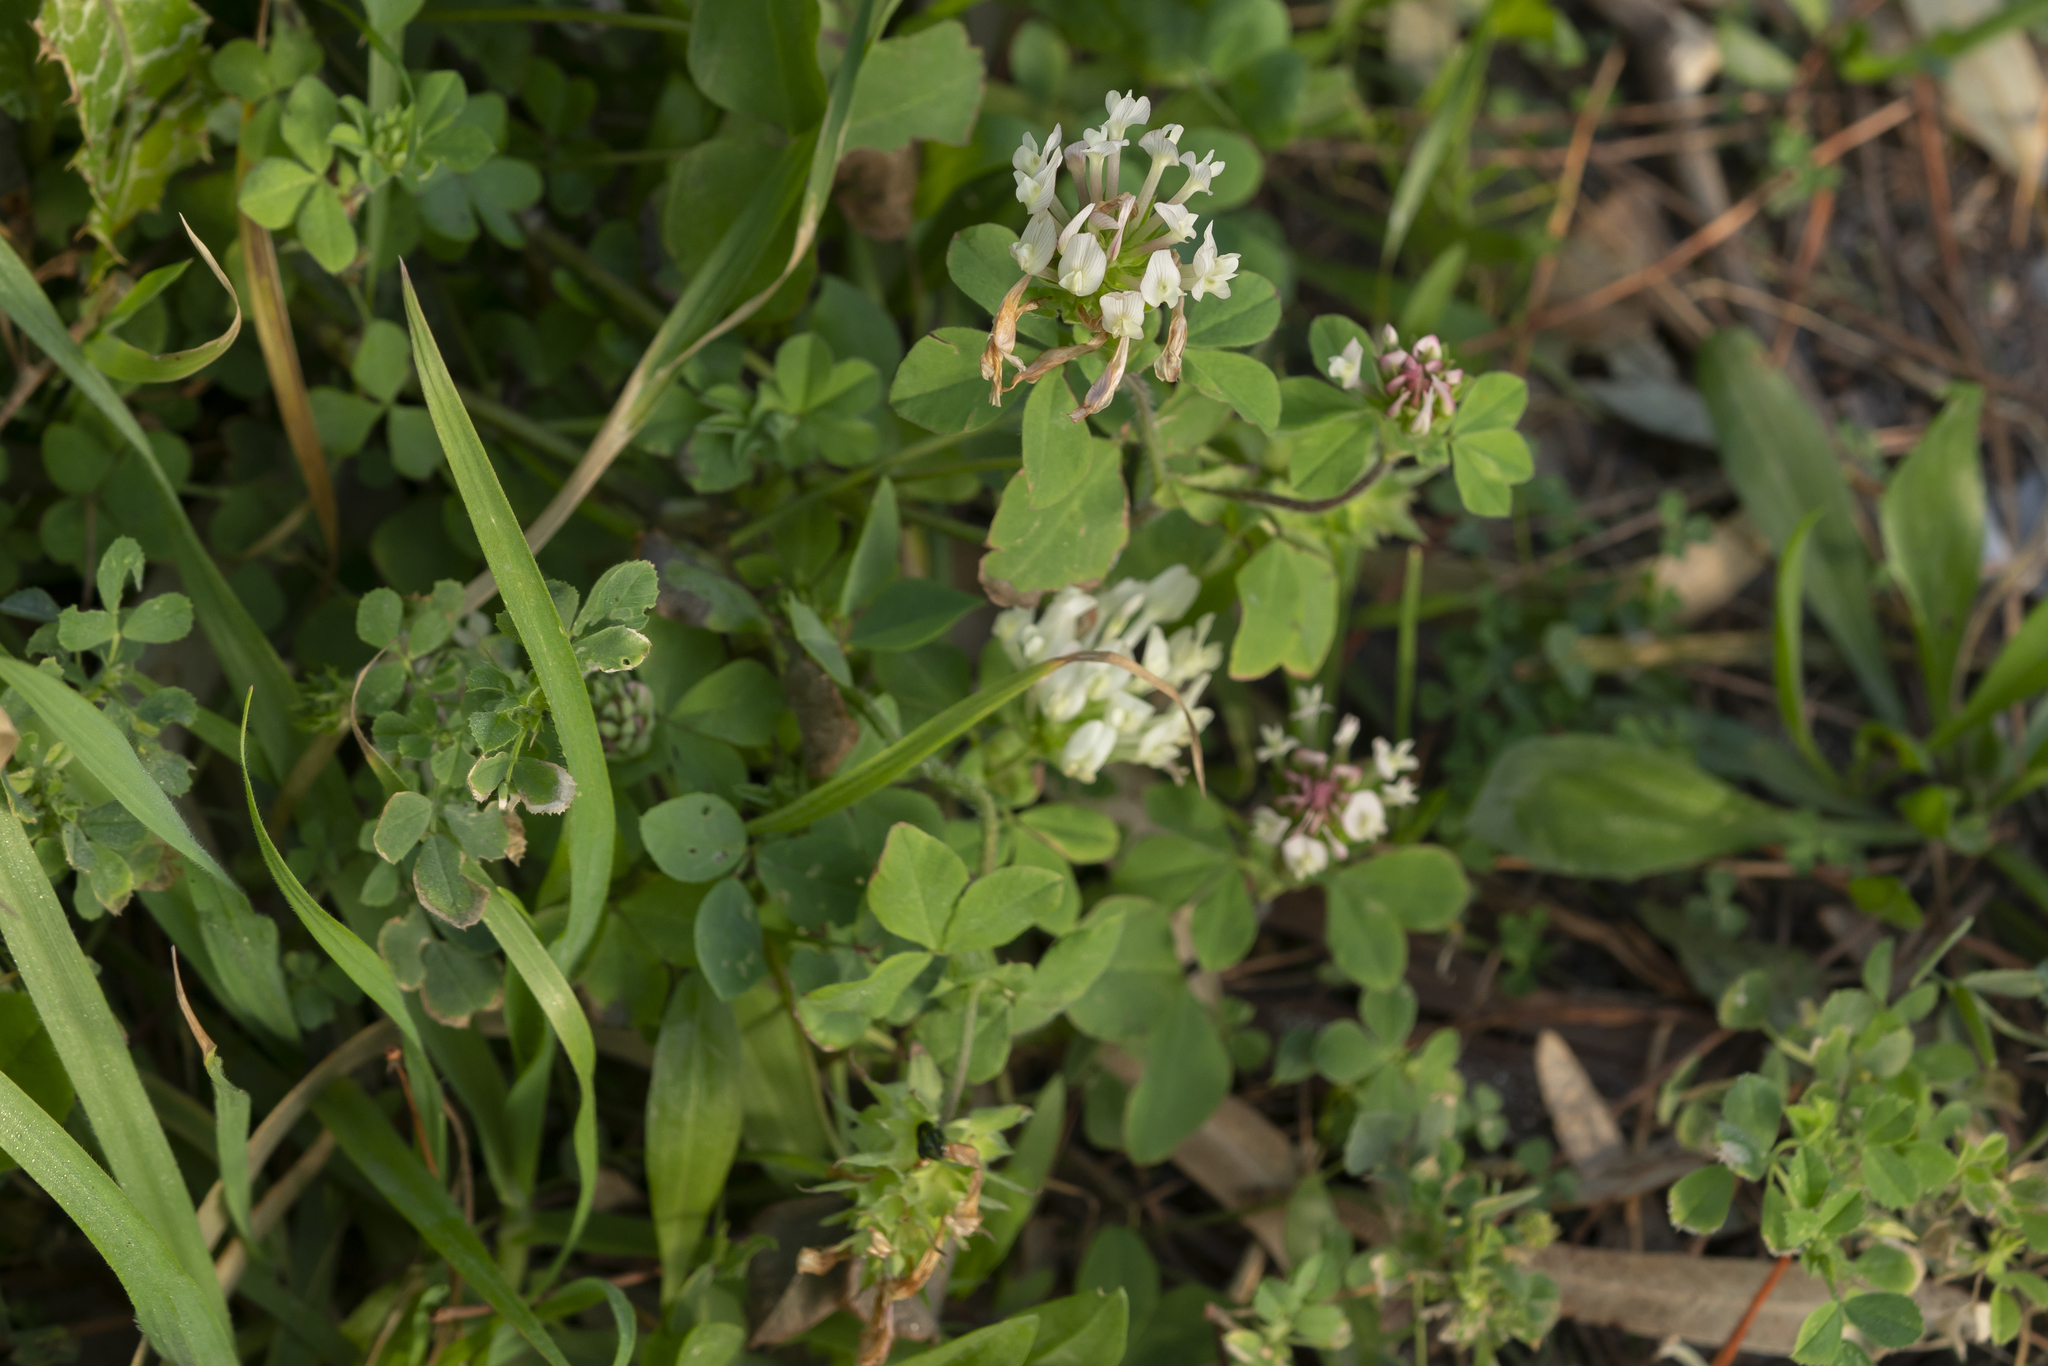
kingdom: Plantae
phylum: Tracheophyta
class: Magnoliopsida
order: Fabales
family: Fabaceae
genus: Trifolium
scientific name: Trifolium clypeatum
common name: Shield clover
